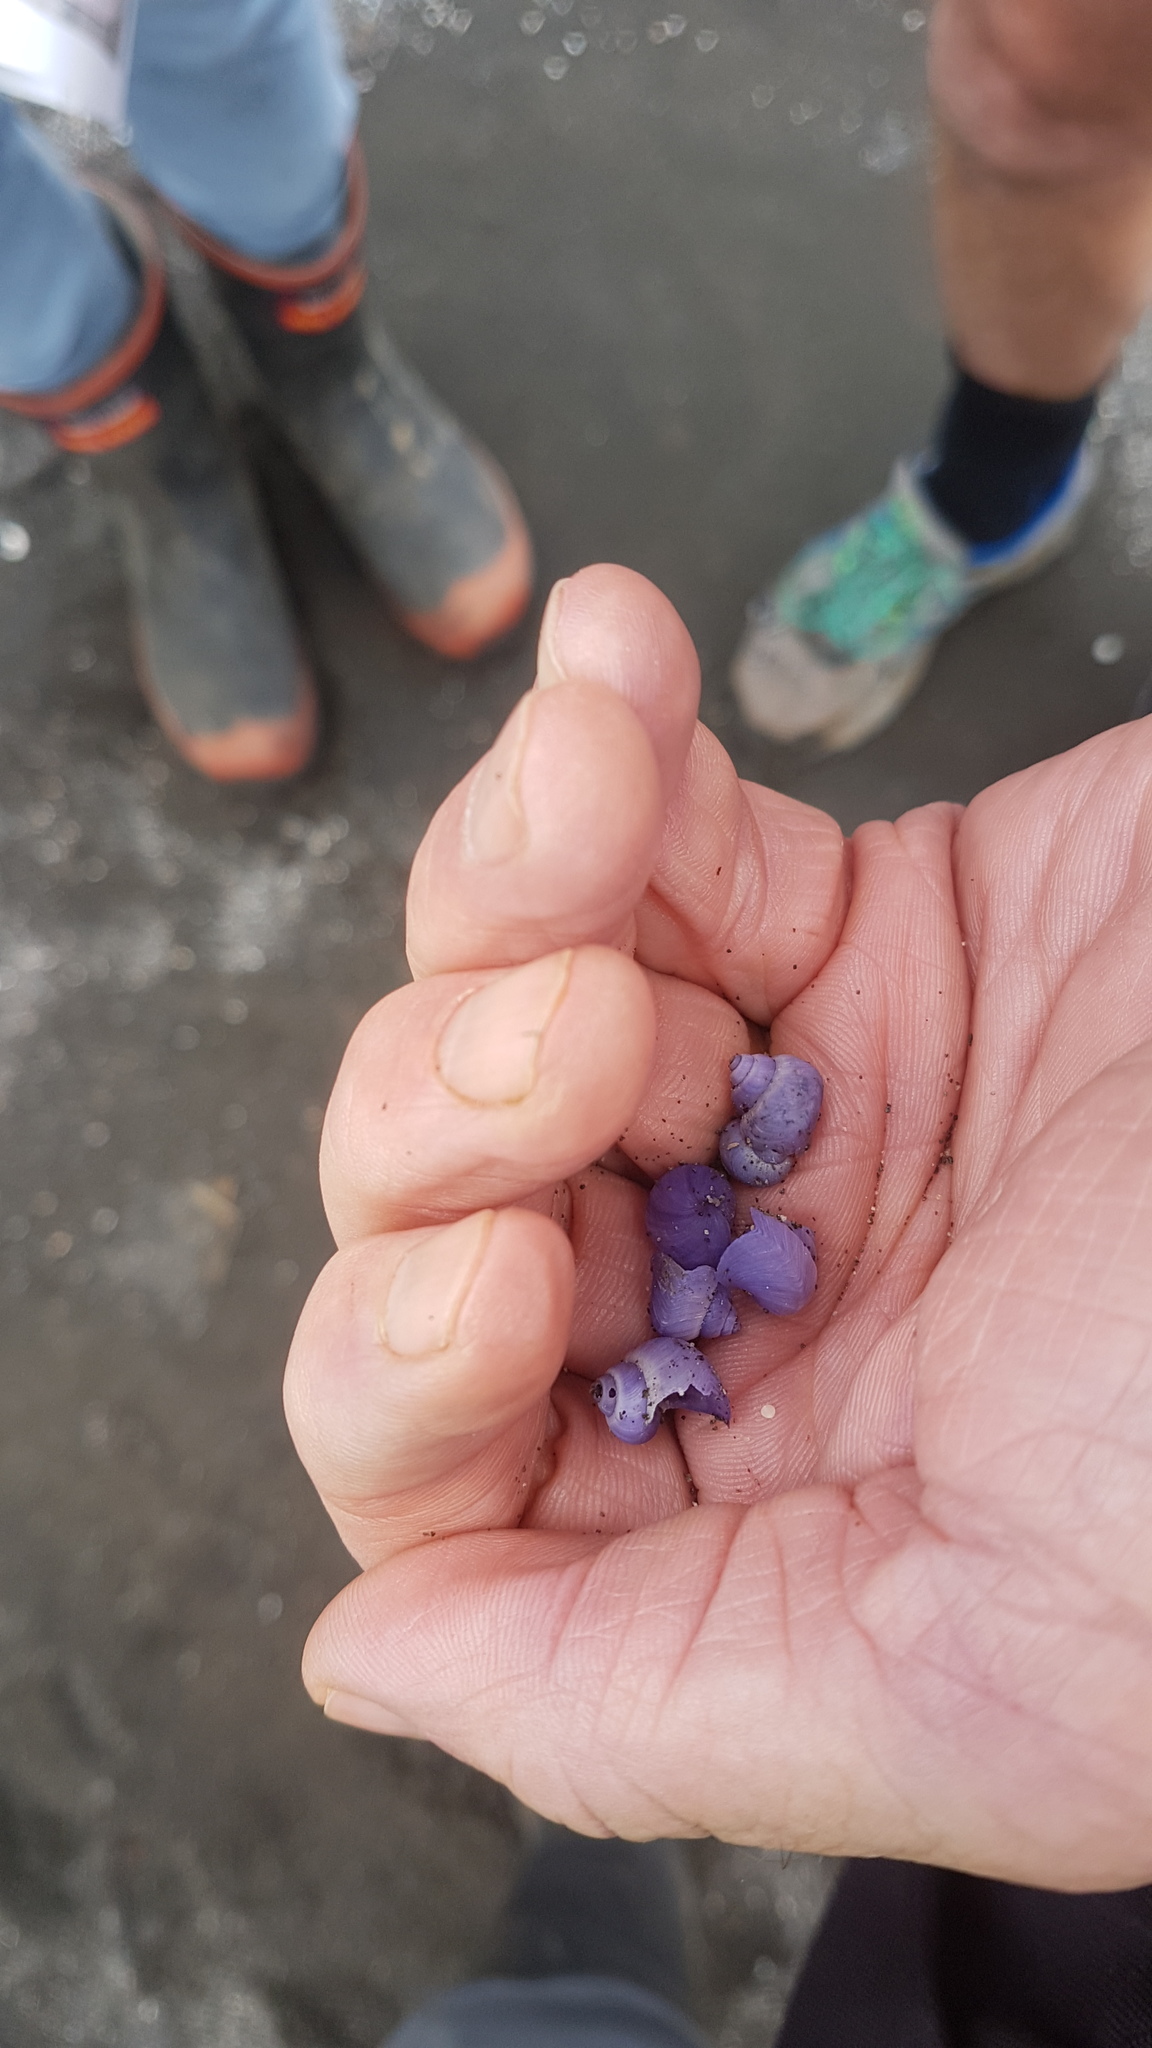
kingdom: Animalia
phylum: Mollusca
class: Gastropoda
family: Epitoniidae
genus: Janthina
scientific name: Janthina exigua
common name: Dwarf janthina
